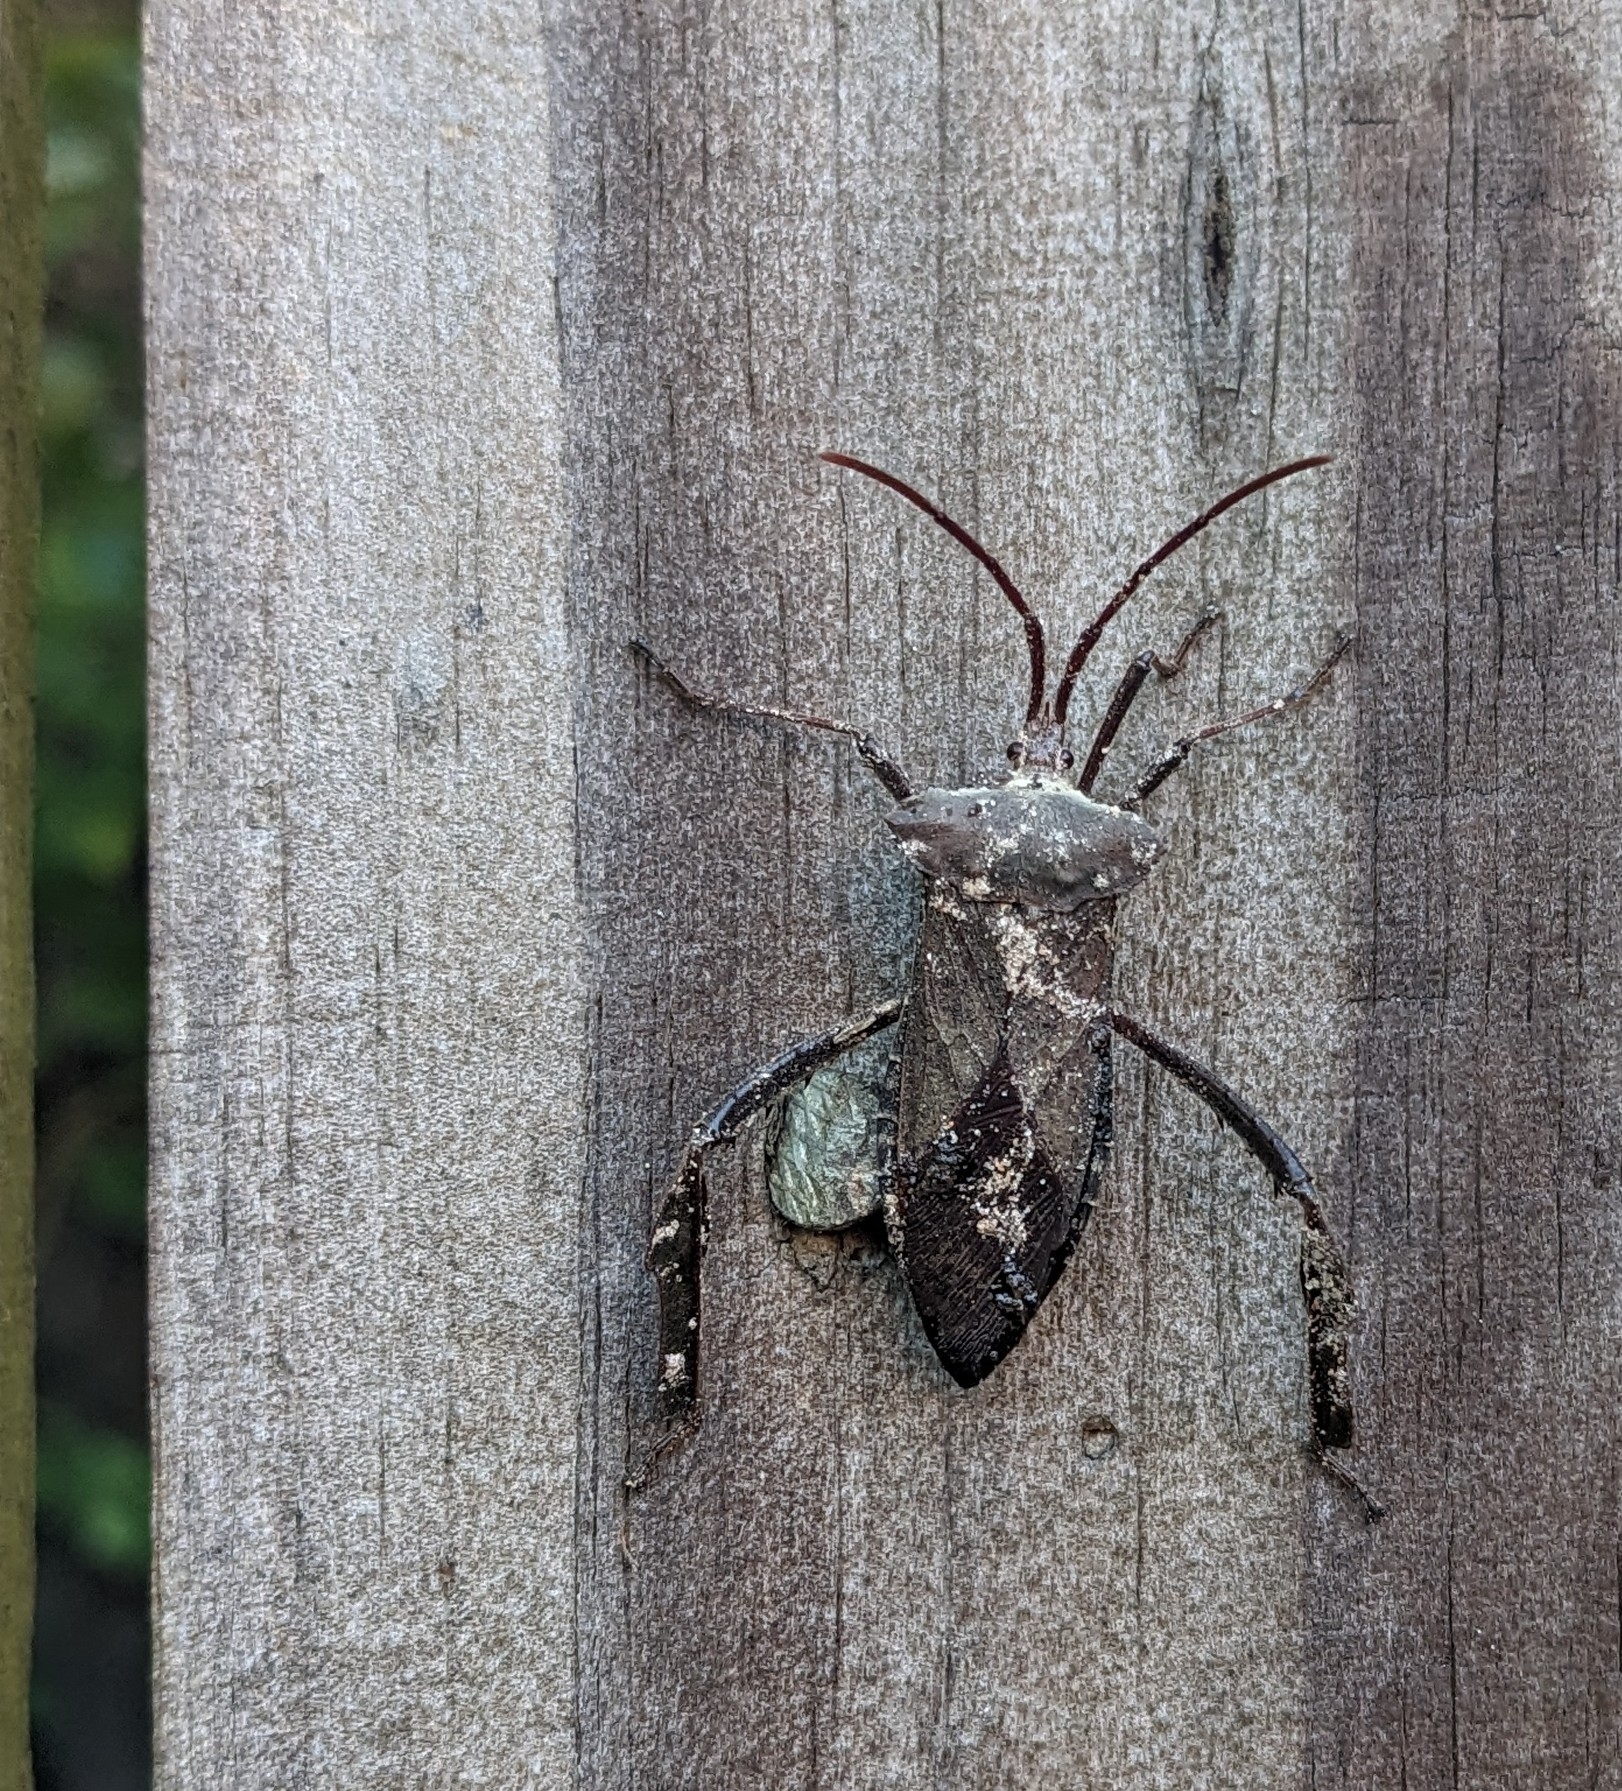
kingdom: Animalia
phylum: Arthropoda
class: Insecta
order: Hemiptera
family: Coreidae
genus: Acanthocephala
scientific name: Acanthocephala declivis
